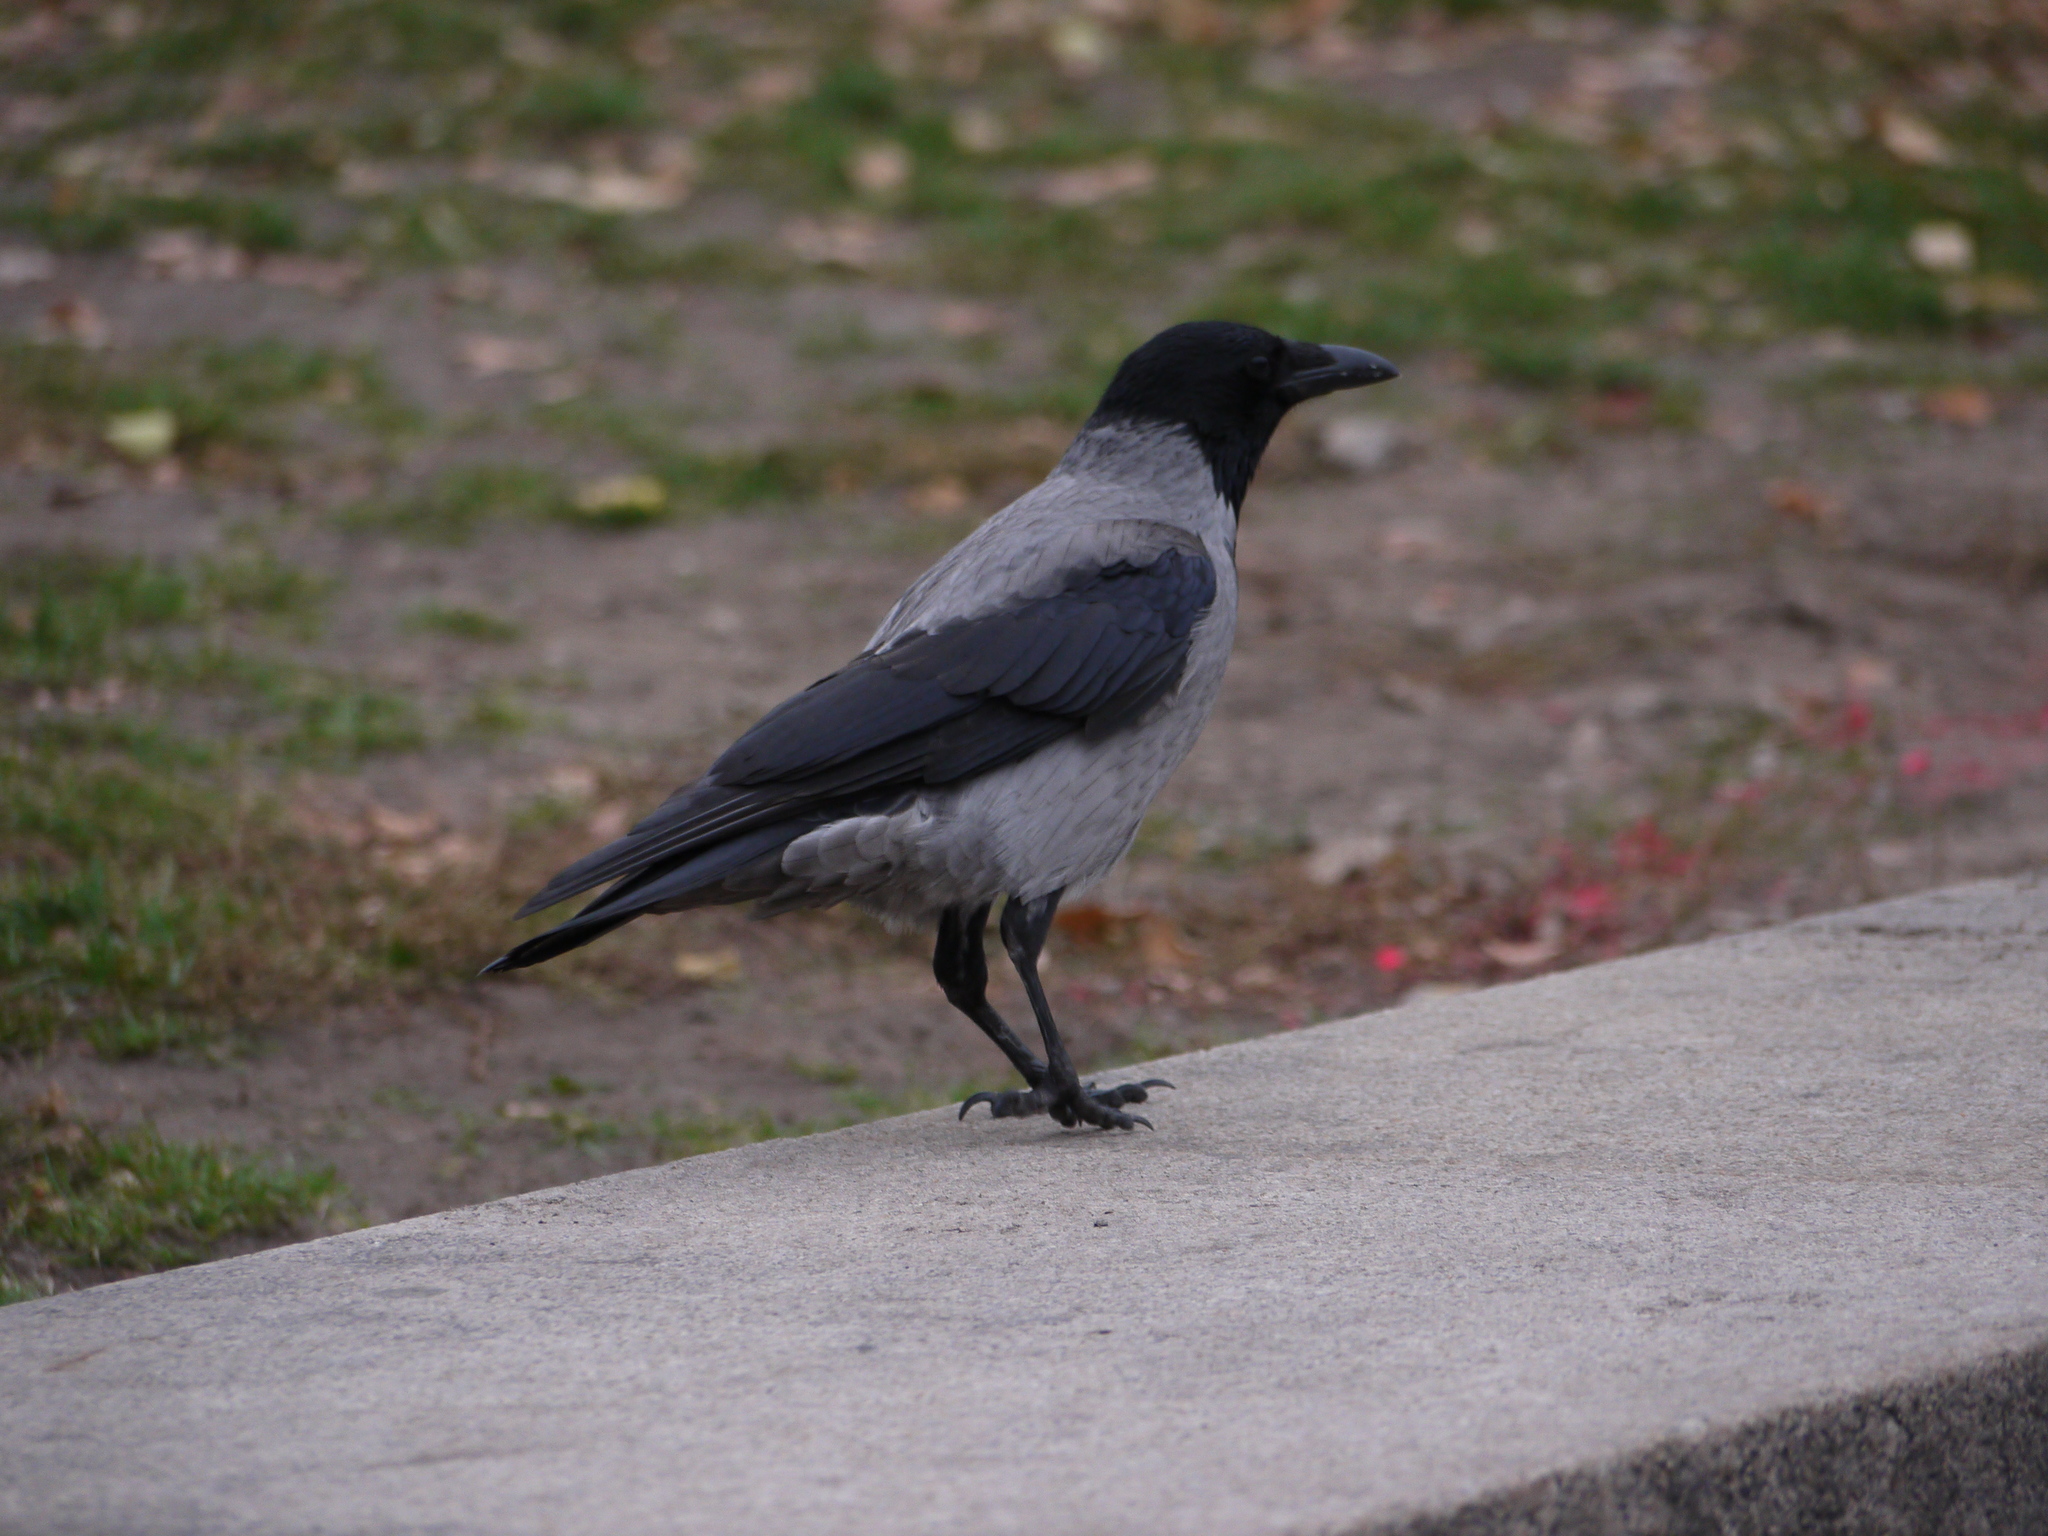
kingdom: Animalia
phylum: Chordata
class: Aves
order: Passeriformes
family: Corvidae
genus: Corvus
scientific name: Corvus cornix
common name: Hooded crow
